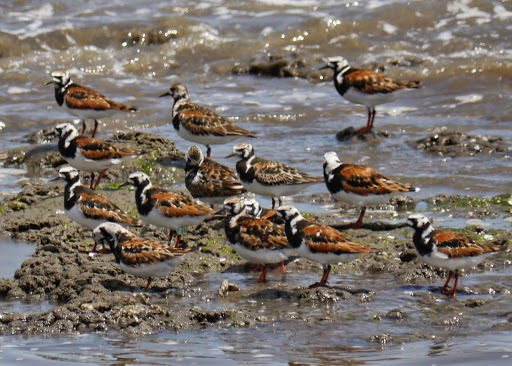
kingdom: Animalia
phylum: Chordata
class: Aves
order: Charadriiformes
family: Scolopacidae
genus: Arenaria
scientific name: Arenaria interpres
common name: Ruddy turnstone
